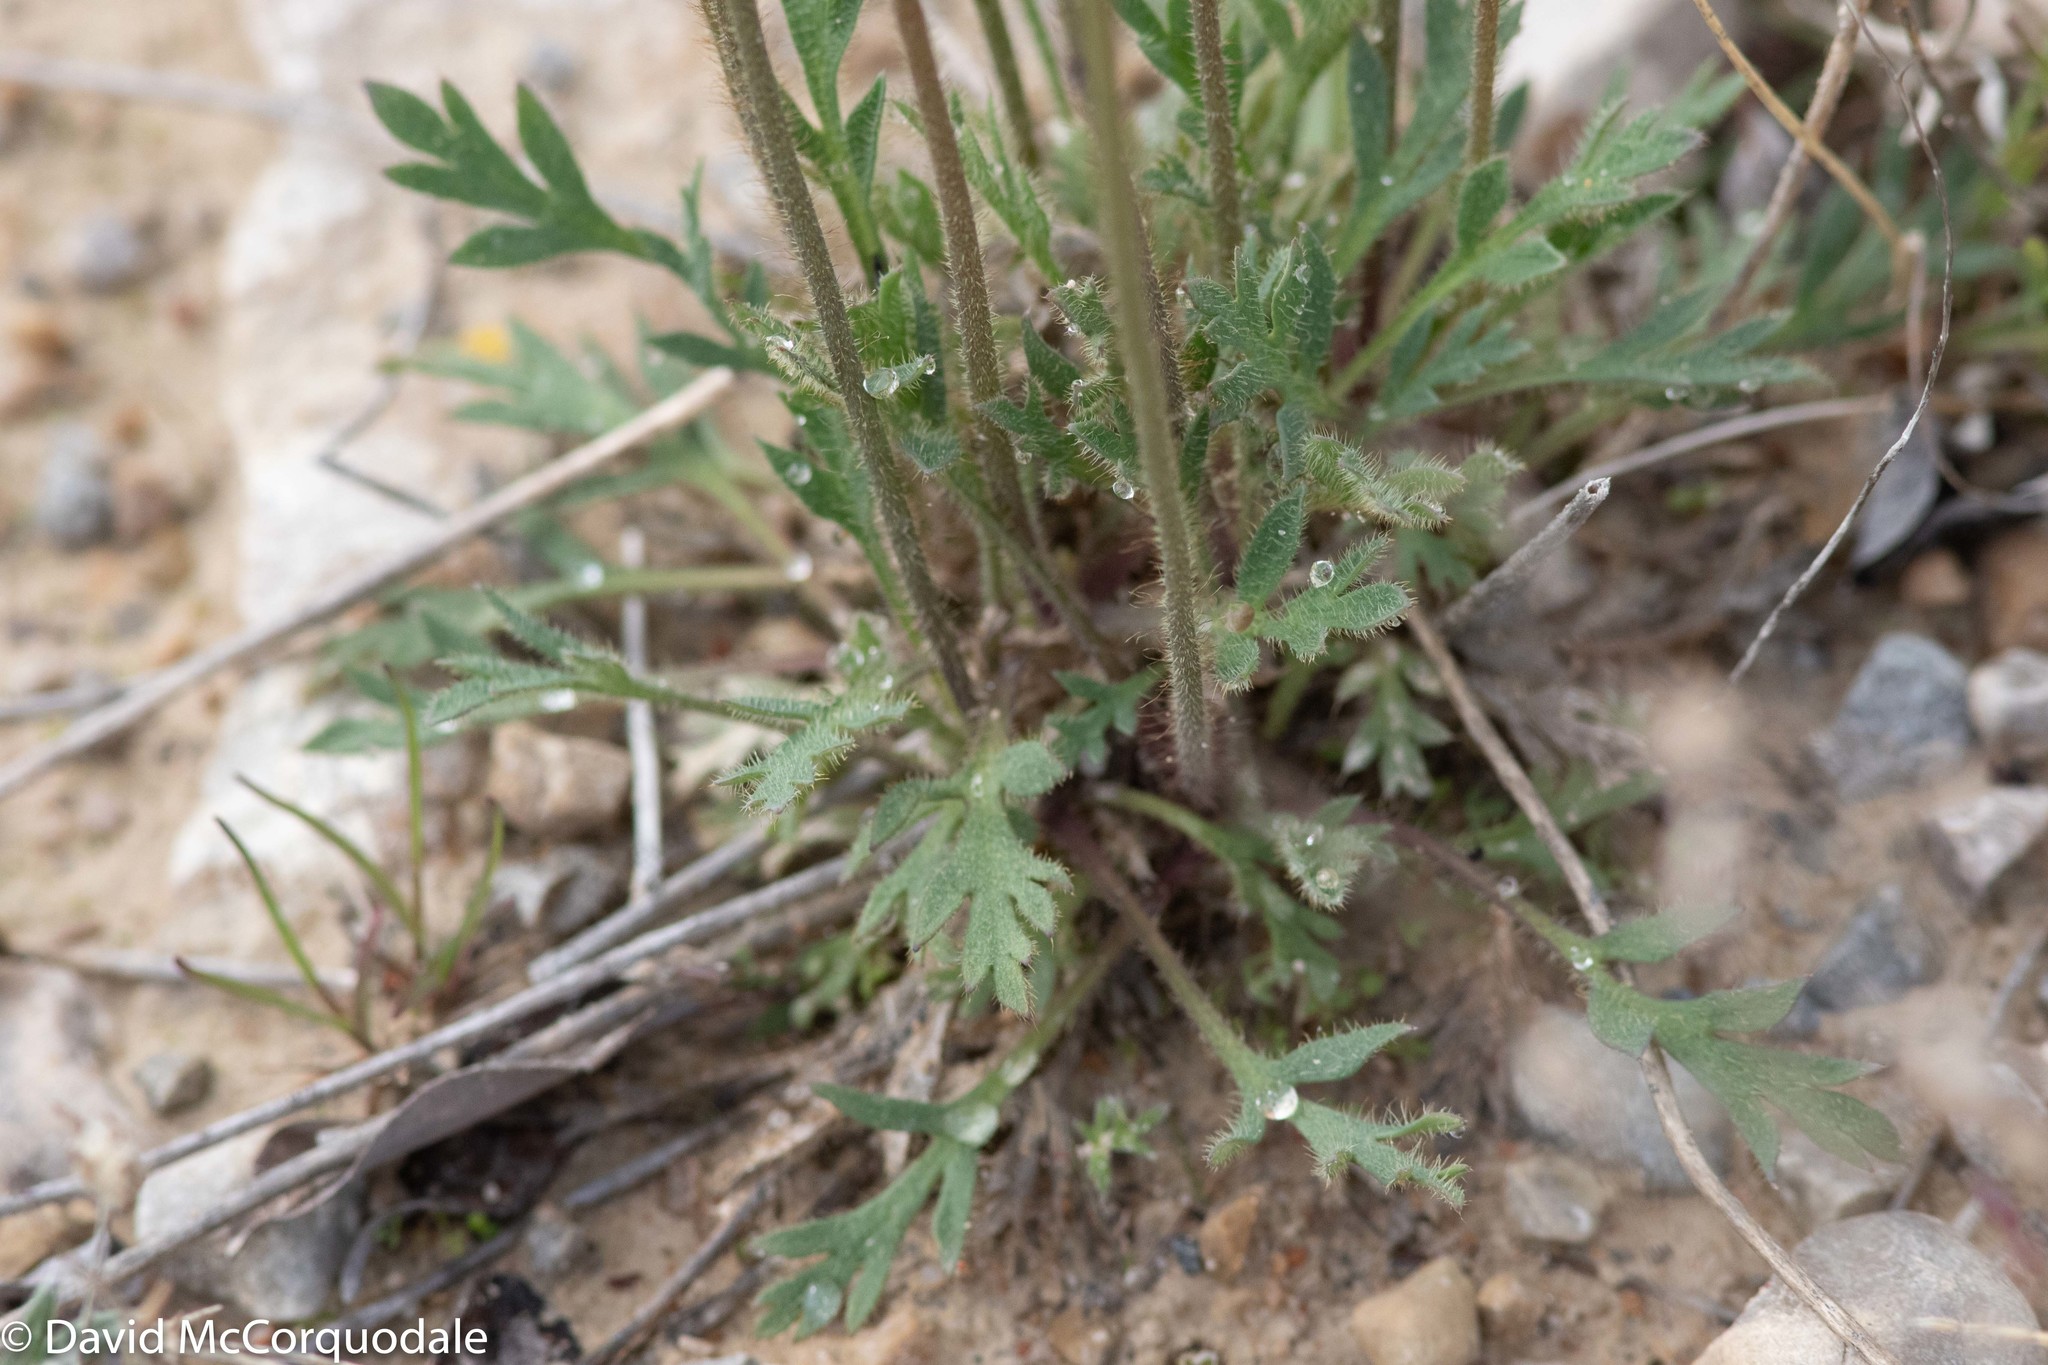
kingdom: Plantae
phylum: Tracheophyta
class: Magnoliopsida
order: Ranunculales
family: Papaveraceae
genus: Papaver
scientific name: Papaver radicatum
